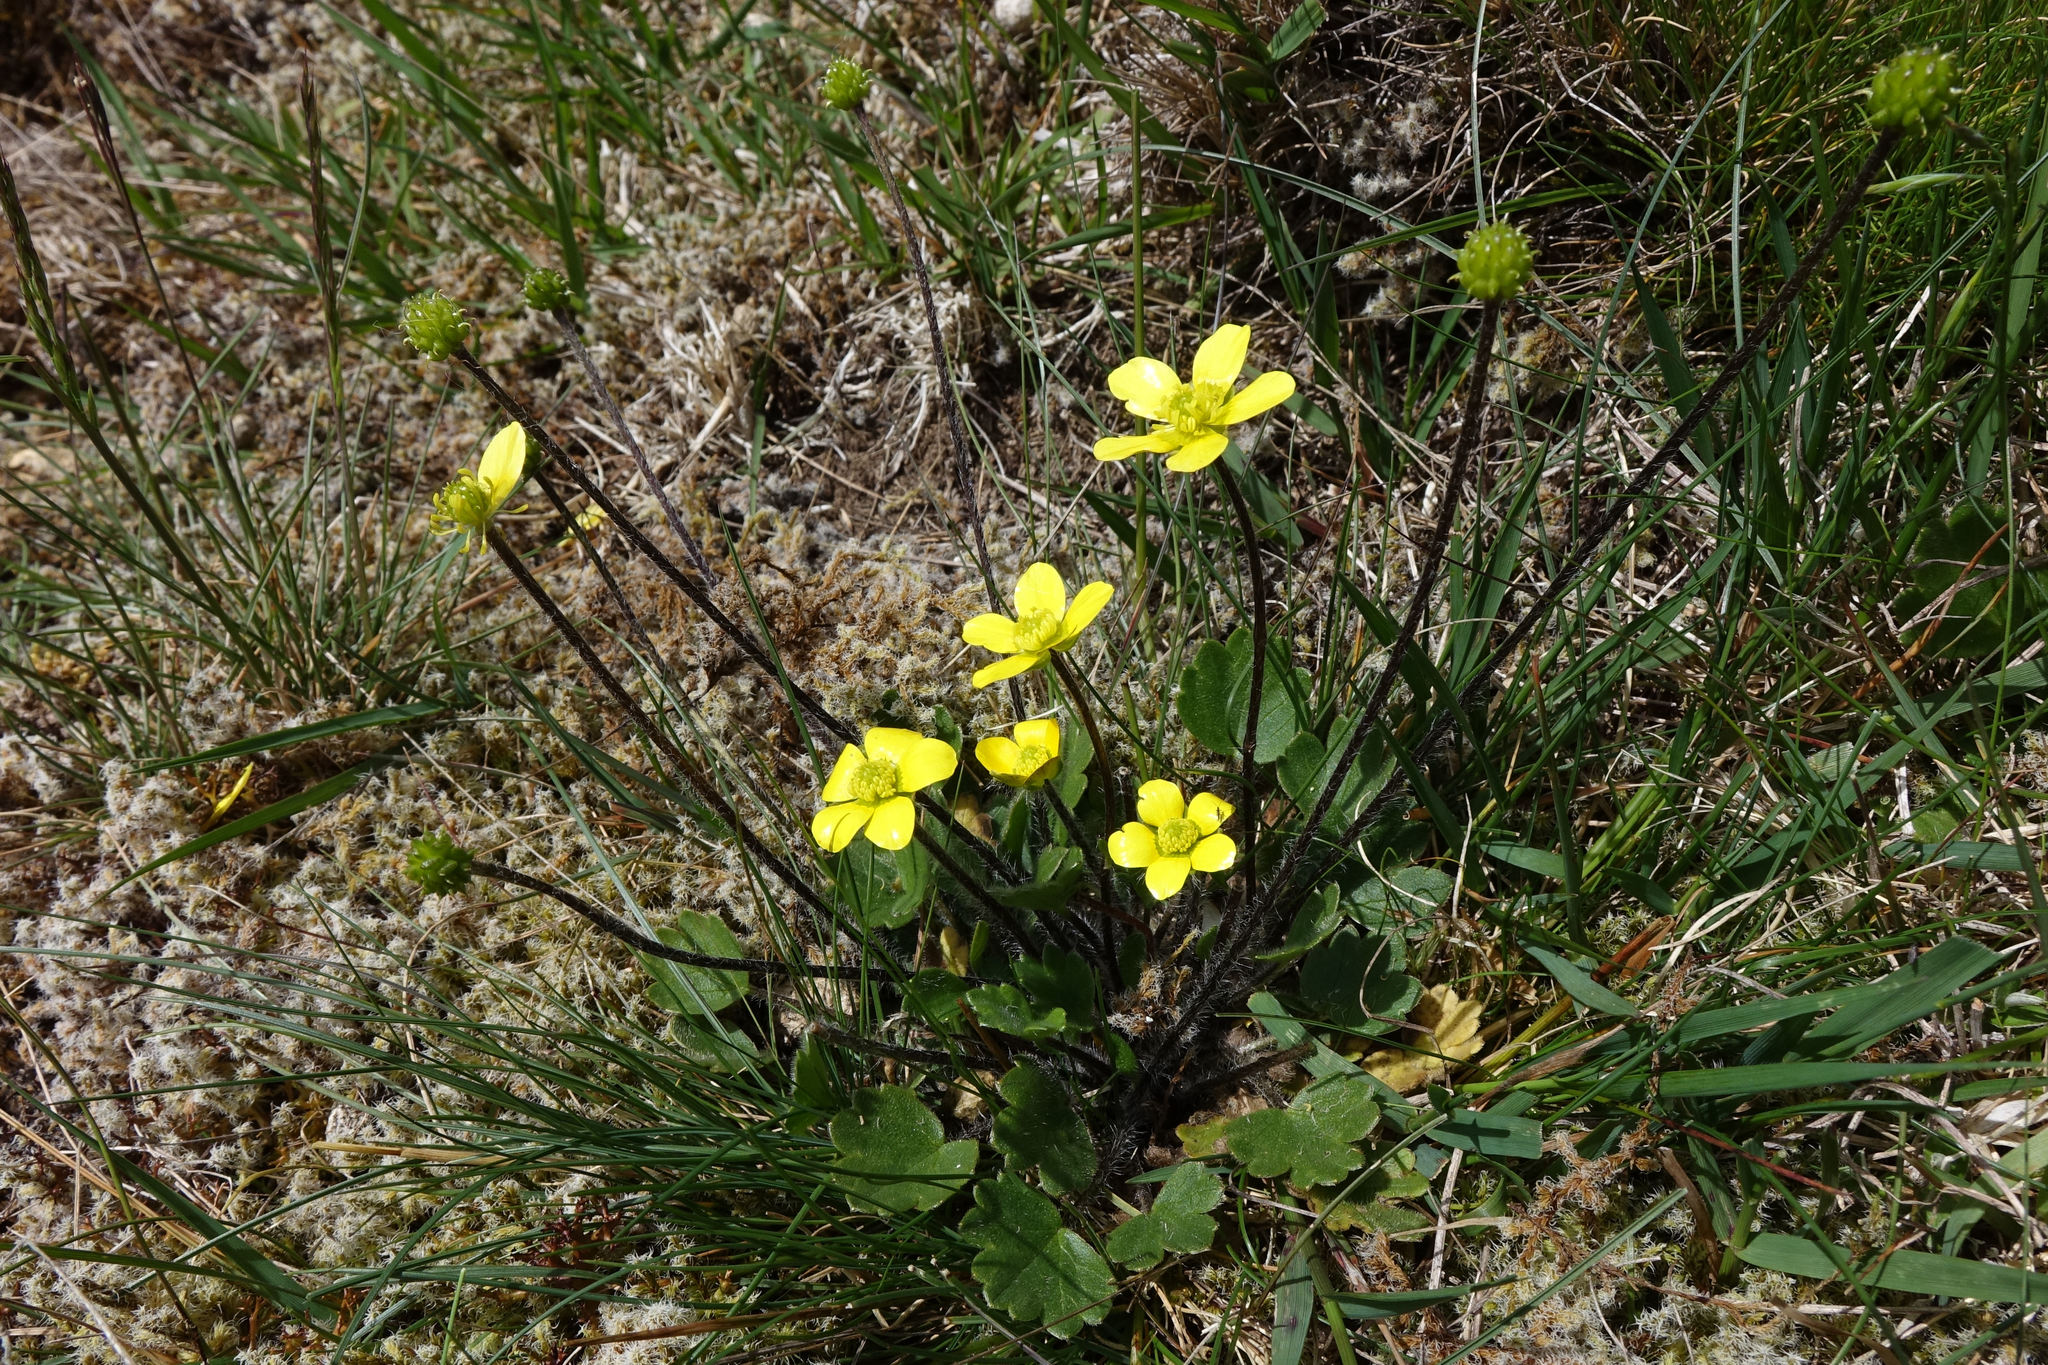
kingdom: Plantae
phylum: Tracheophyta
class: Magnoliopsida
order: Ranunculales
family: Ranunculaceae
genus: Ranunculus
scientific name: Ranunculus multiscapus
